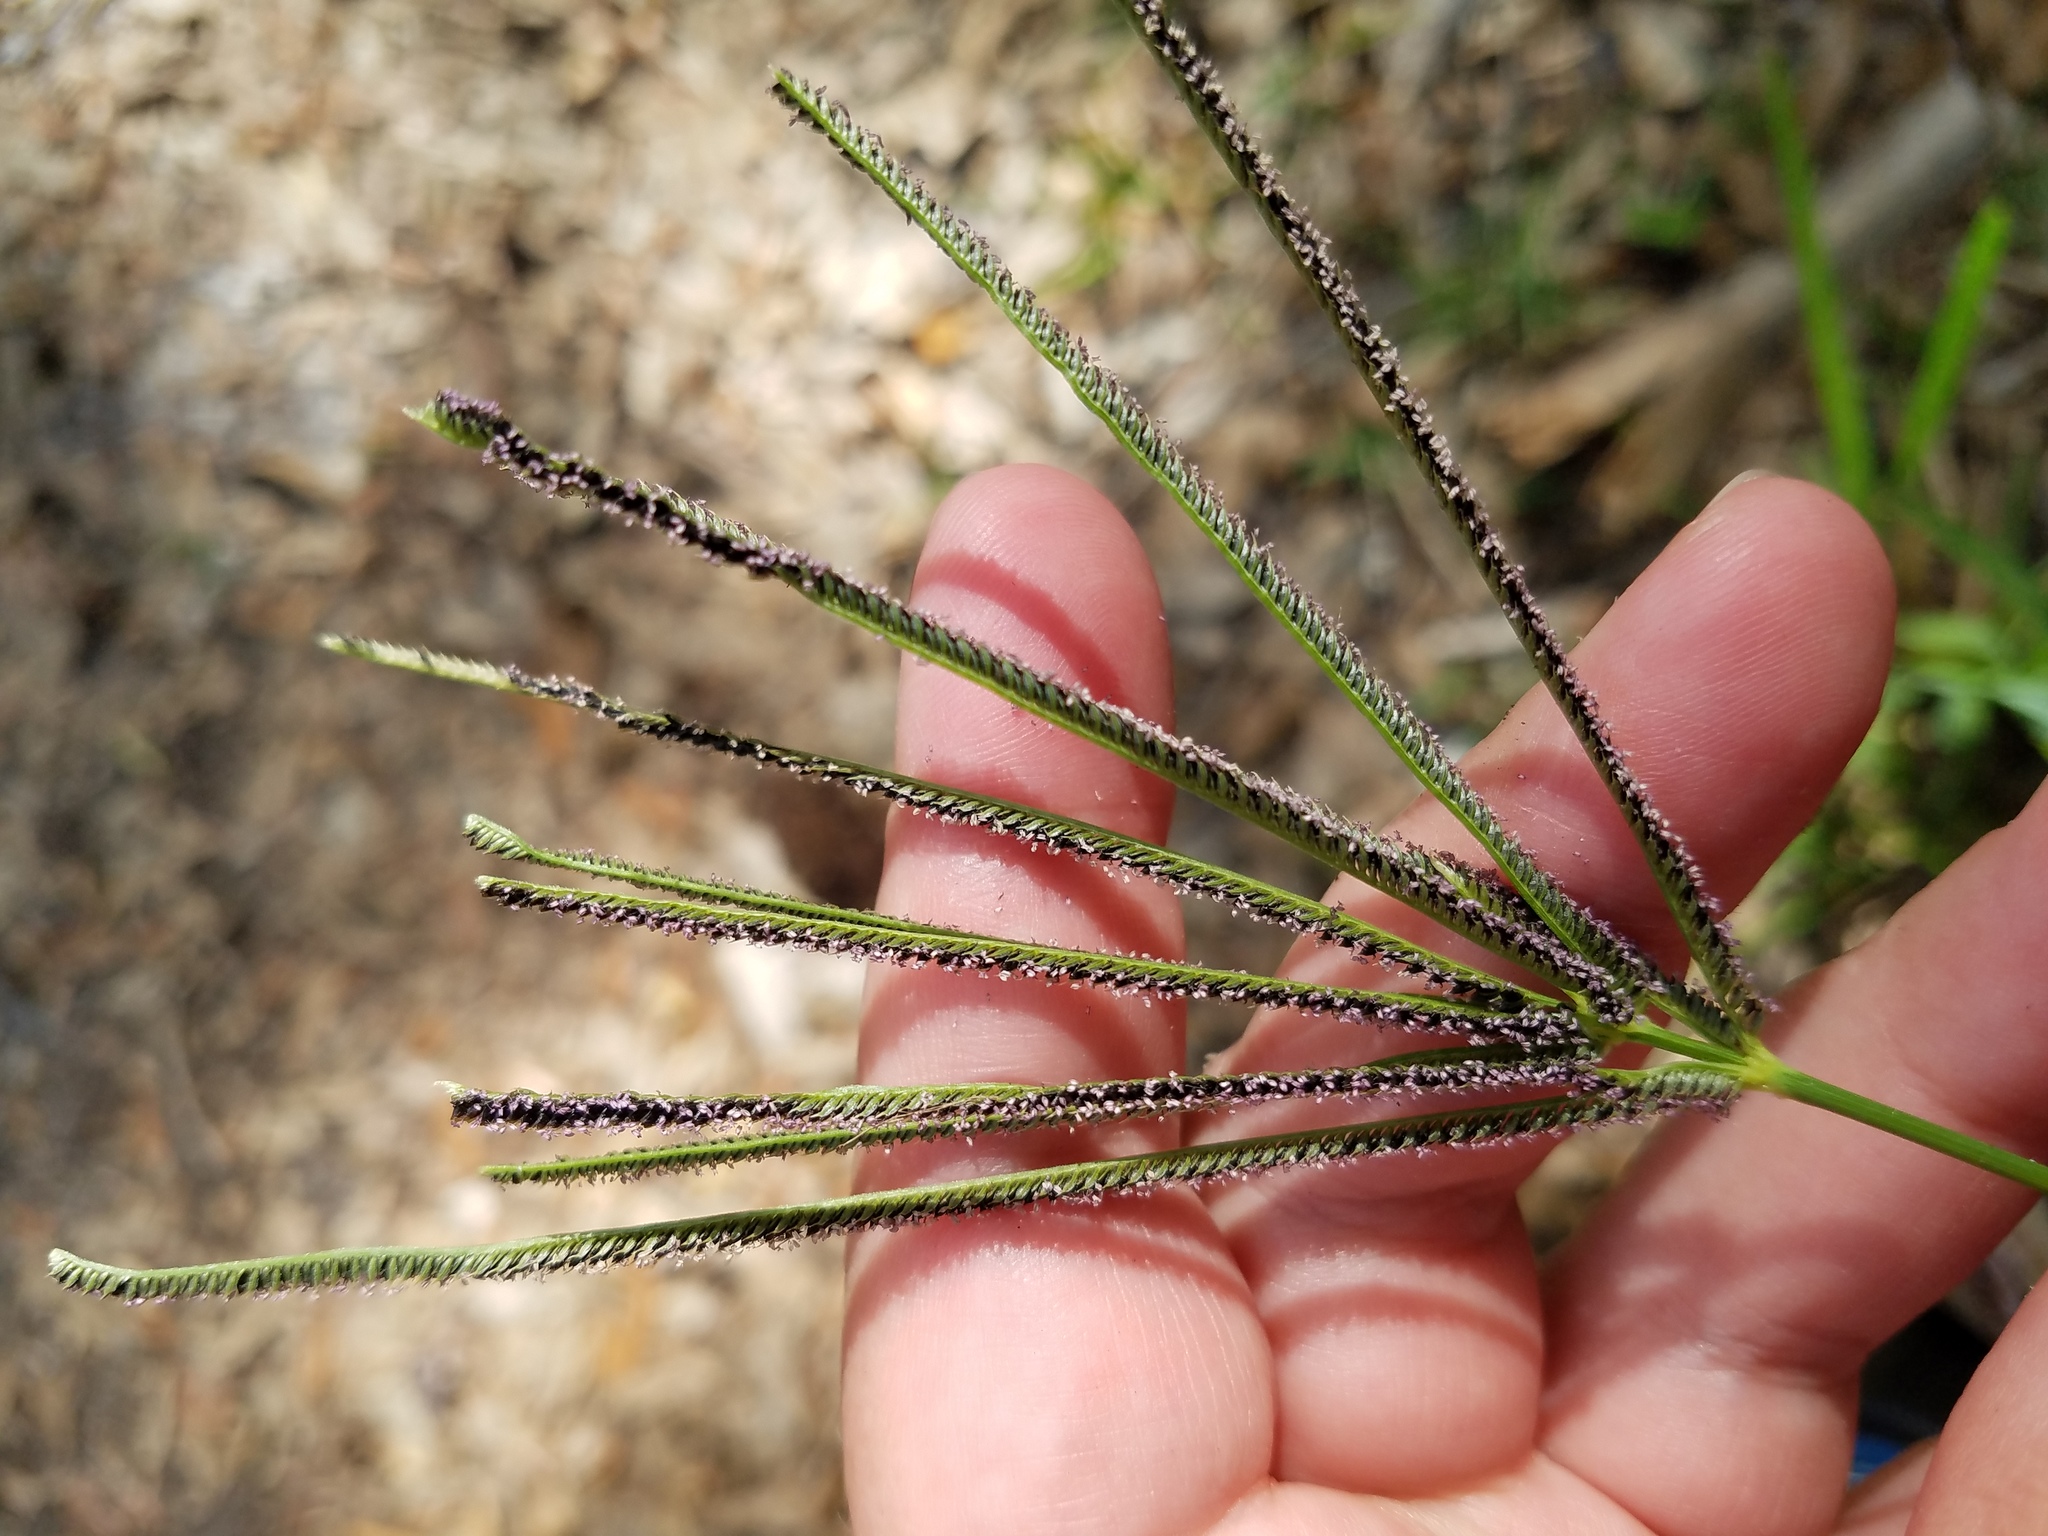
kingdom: Plantae
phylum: Tracheophyta
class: Liliopsida
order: Poales
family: Poaceae
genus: Eustachys
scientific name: Eustachys glauca
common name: Saltmarsh finger grass
